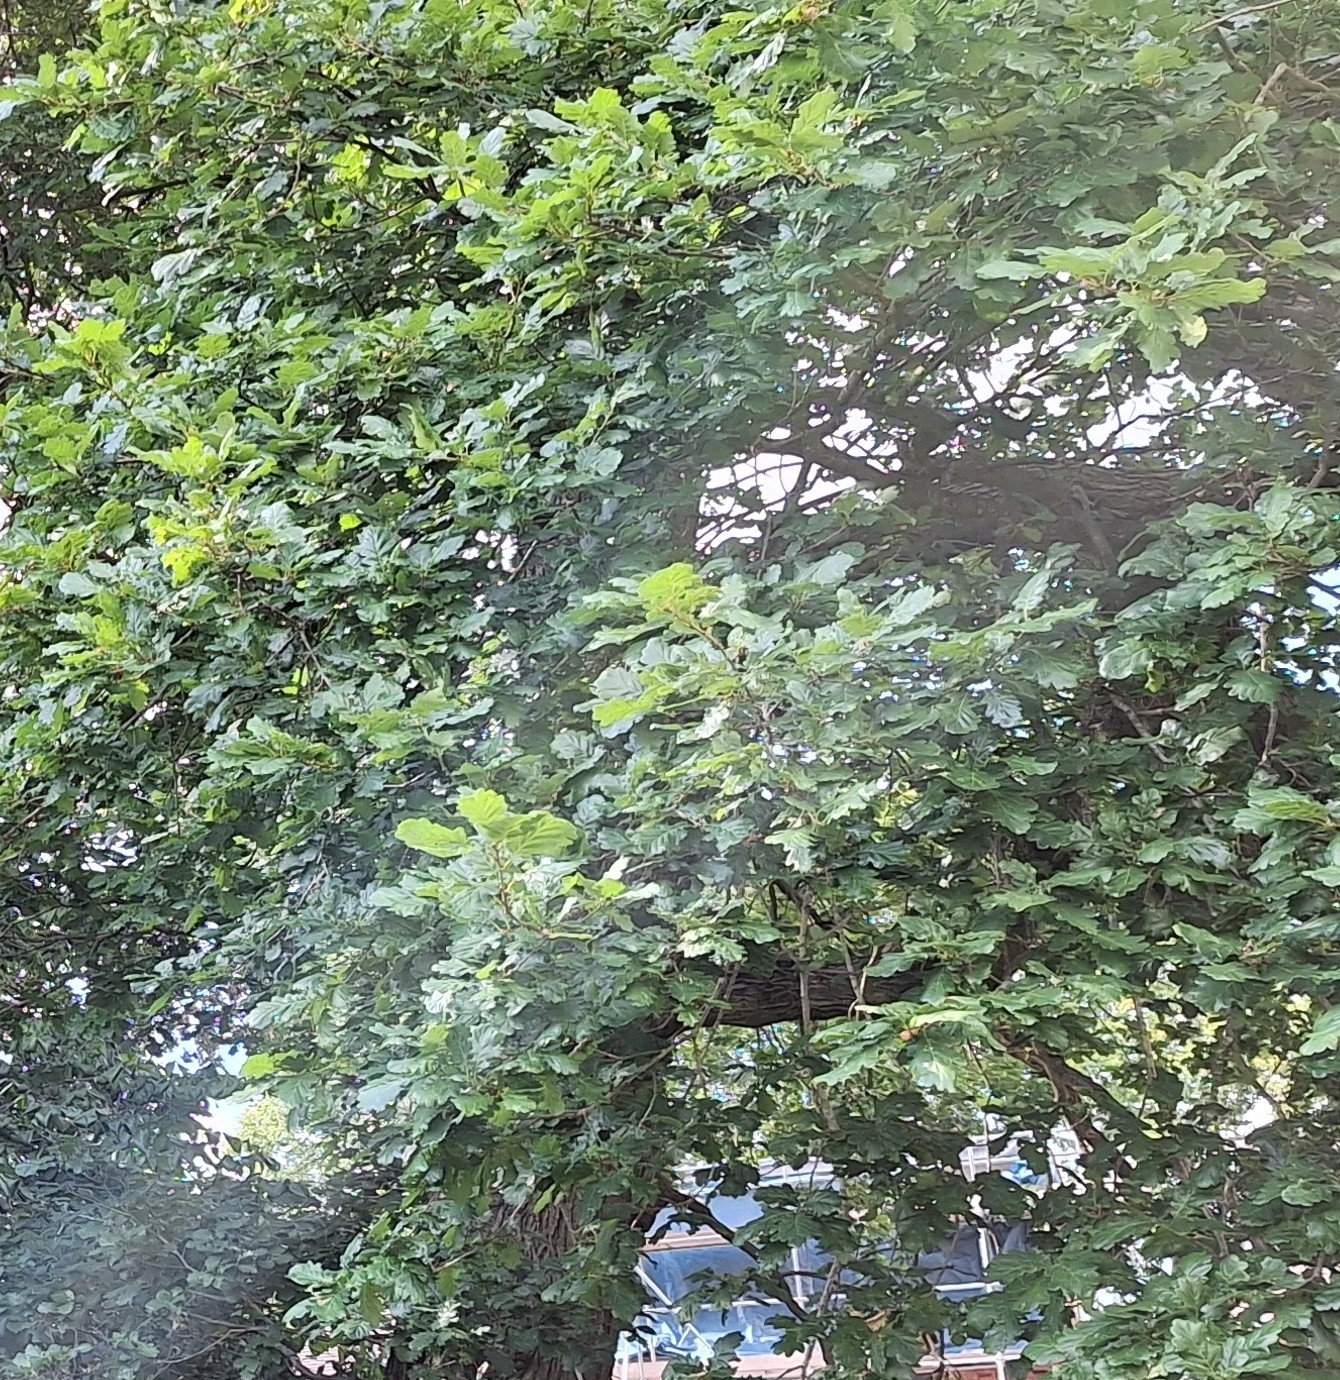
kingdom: Plantae
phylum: Tracheophyta
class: Magnoliopsida
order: Fagales
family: Fagaceae
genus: Quercus
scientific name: Quercus robur
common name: Pedunculate oak
